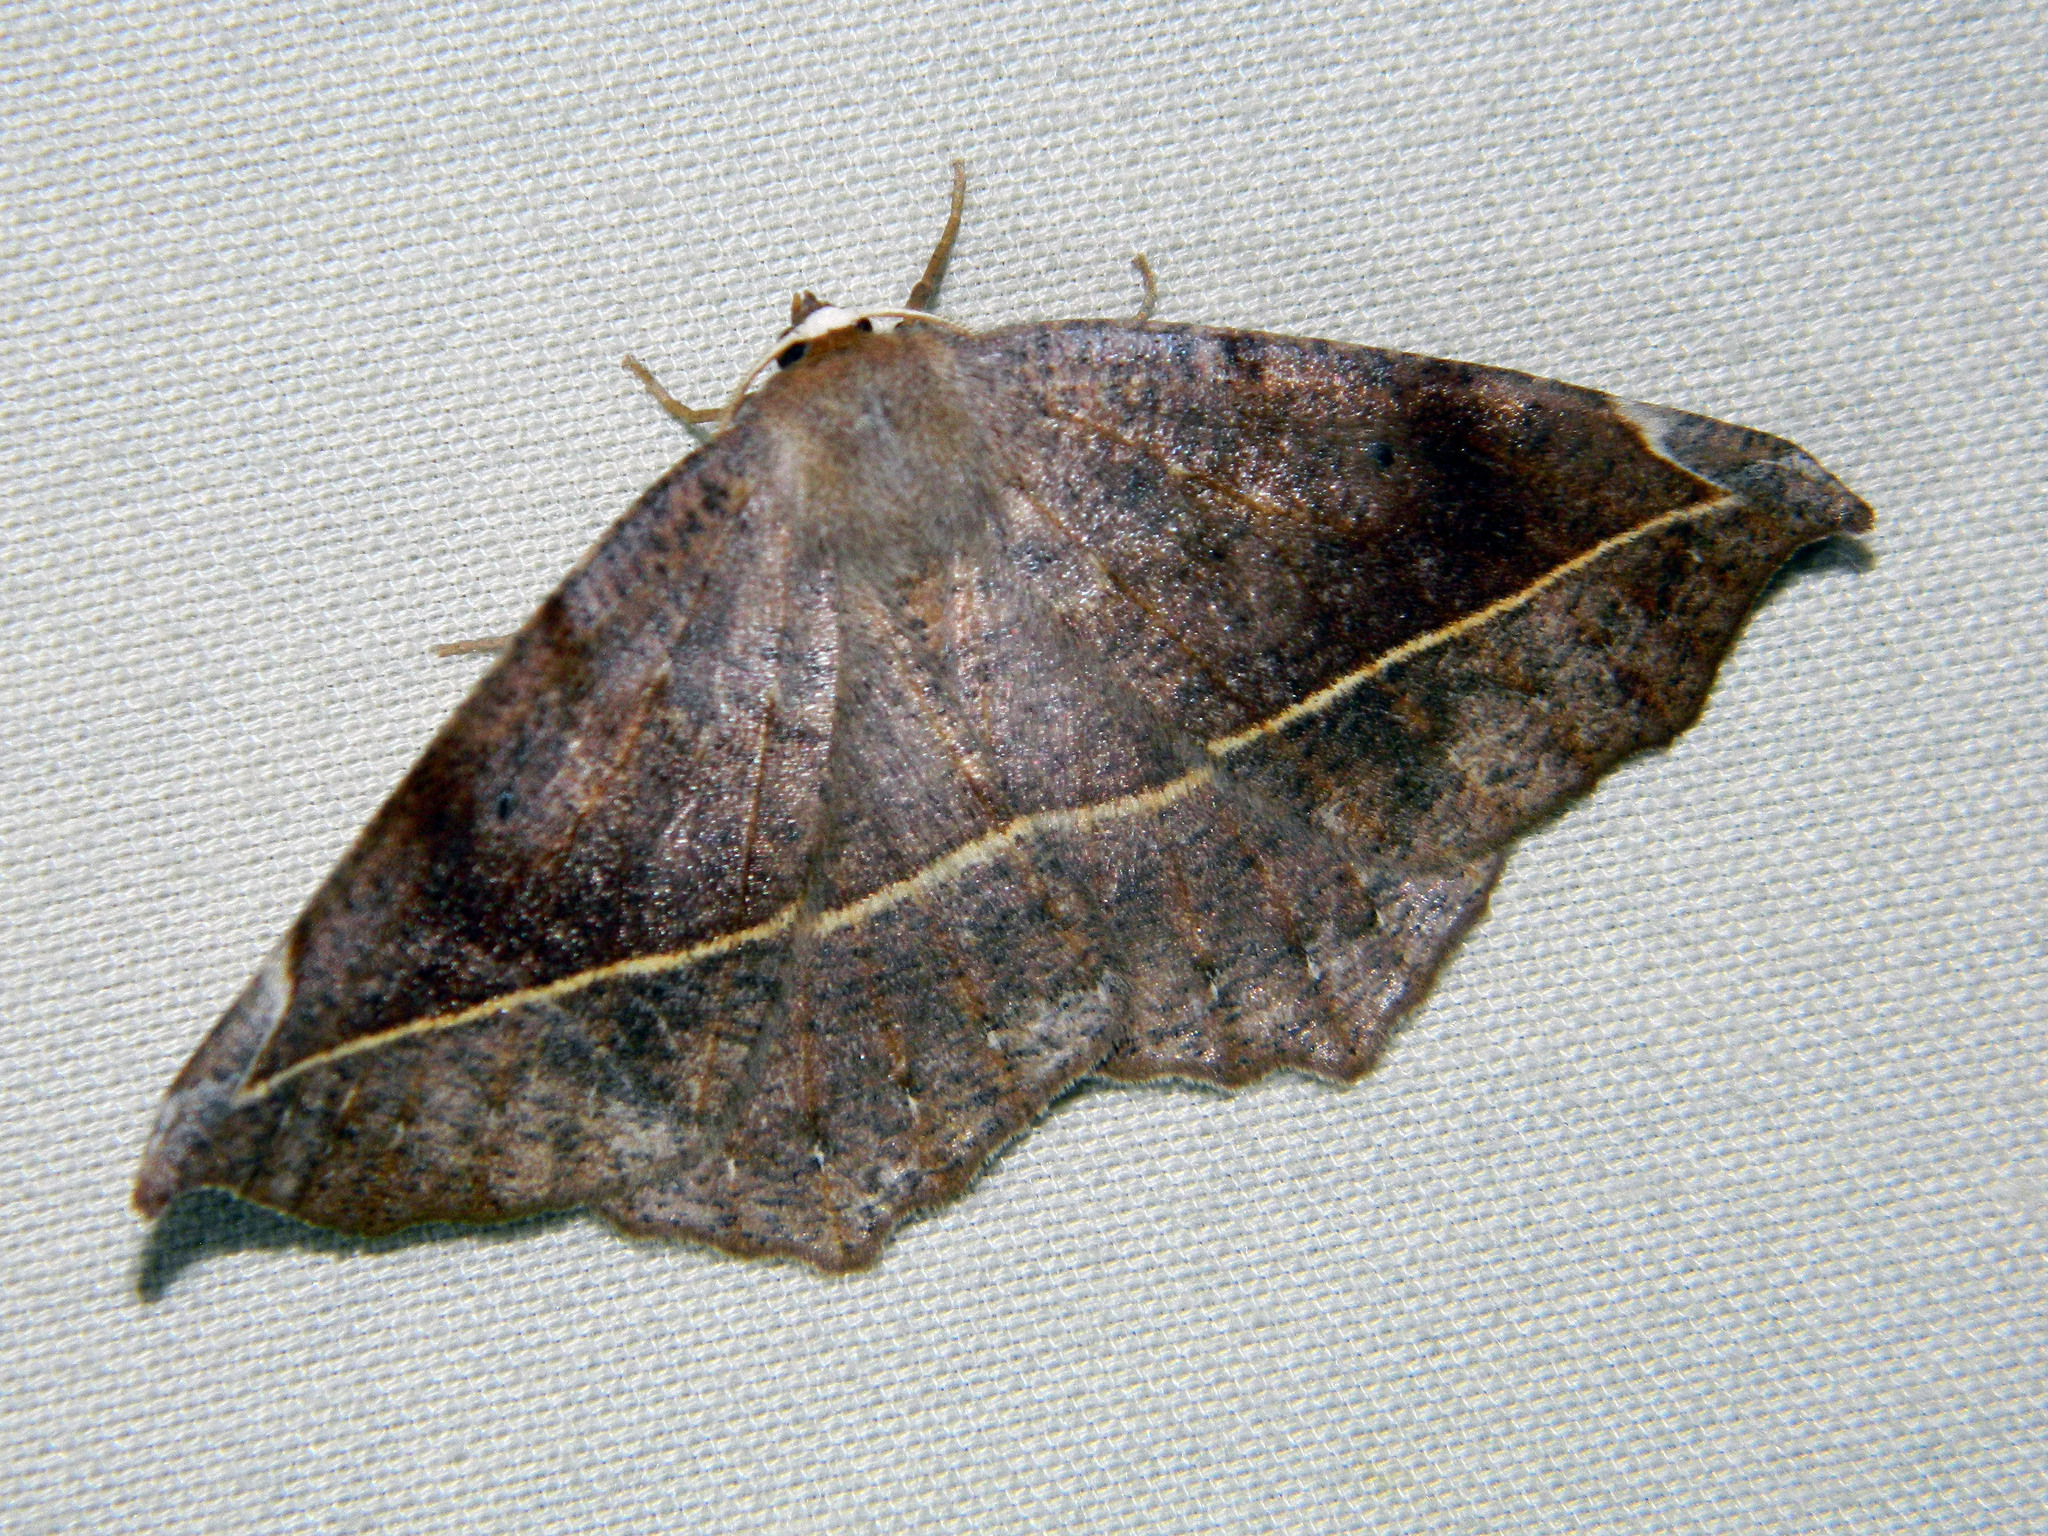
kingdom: Animalia
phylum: Arthropoda
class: Insecta
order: Lepidoptera
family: Geometridae
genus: Eutrapela
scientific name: Eutrapela clemataria
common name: Curved-toothed geometer
